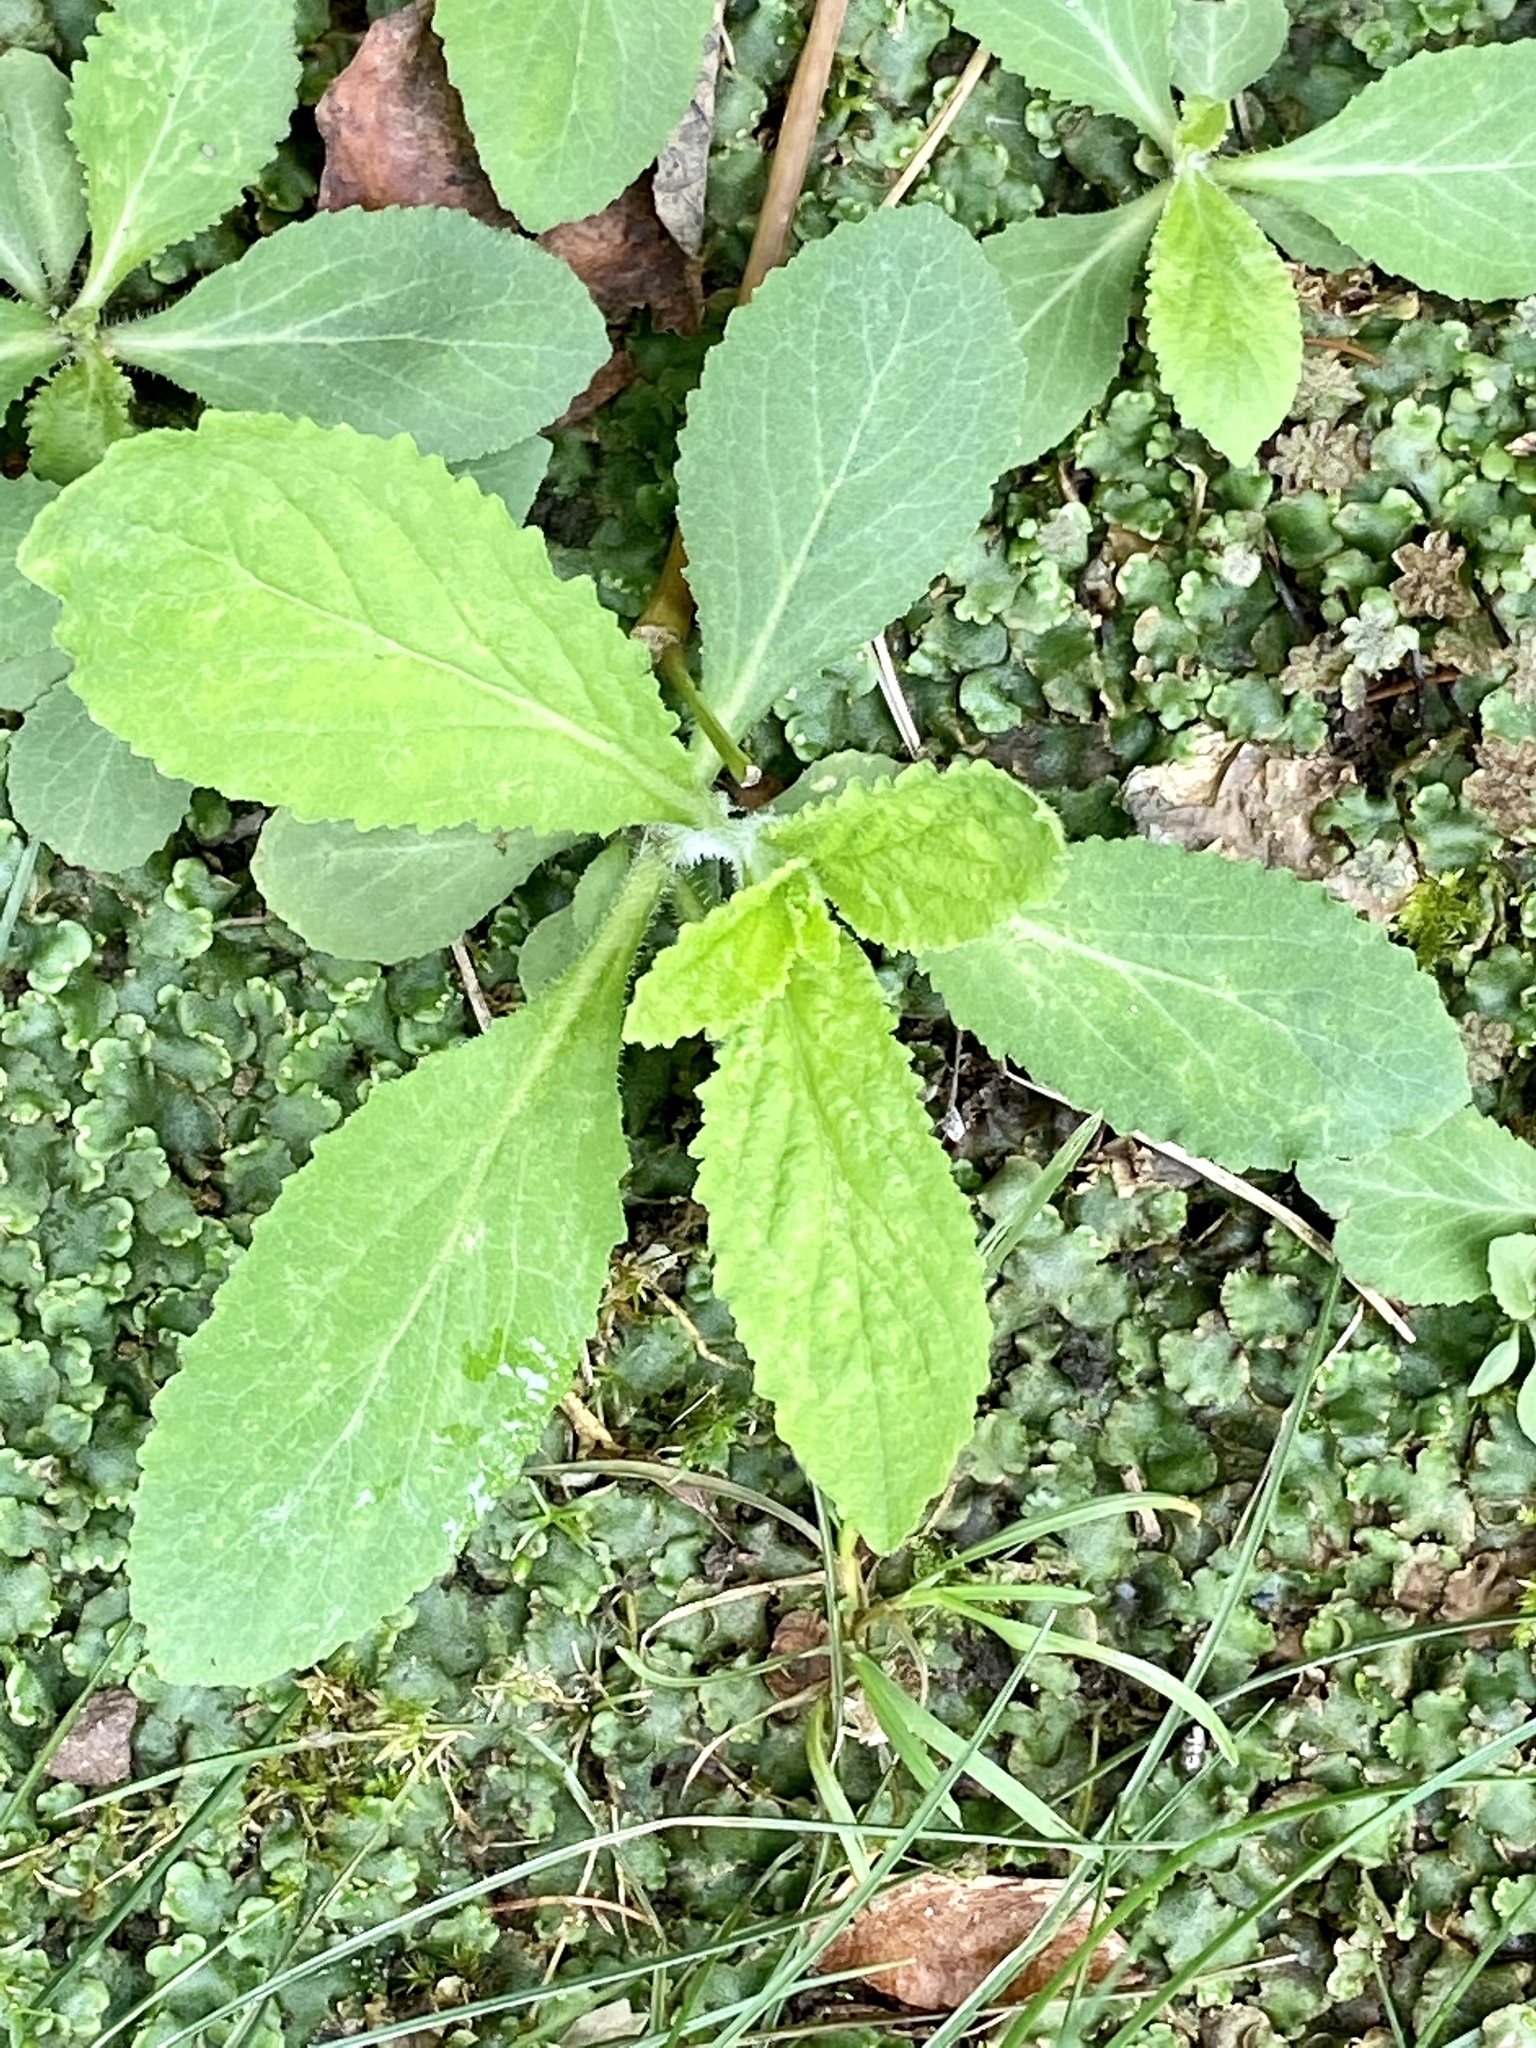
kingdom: Plantae
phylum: Tracheophyta
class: Magnoliopsida
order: Asterales
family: Campanulaceae
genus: Lobelia
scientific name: Lobelia inflata
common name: Indian tobacco
